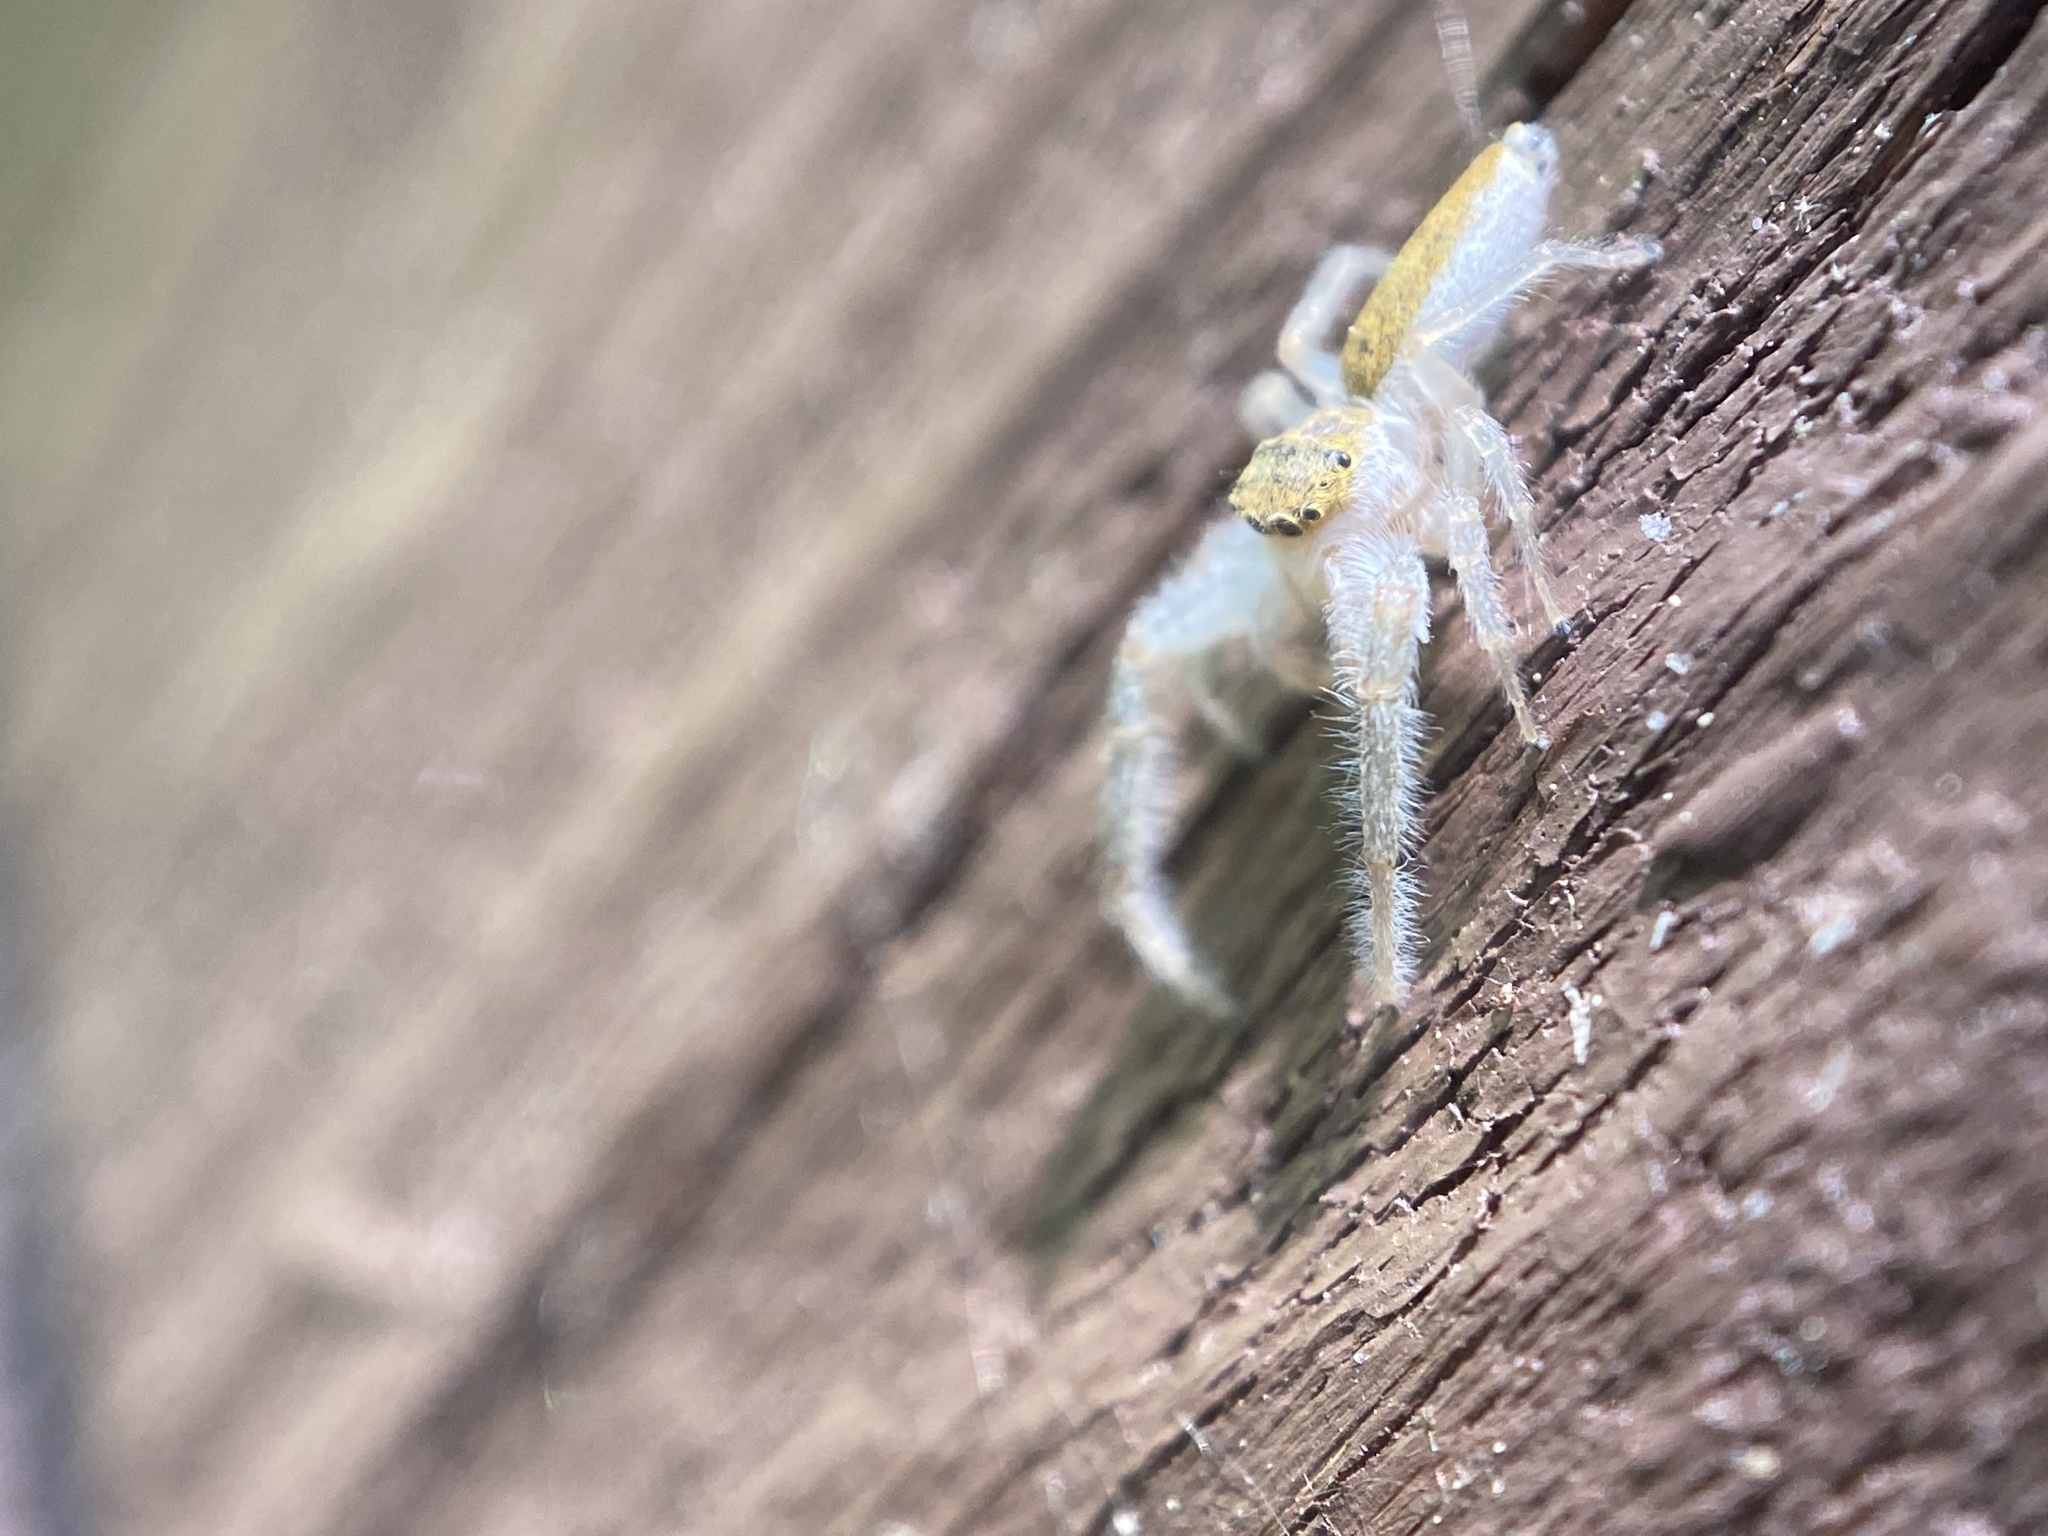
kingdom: Animalia
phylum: Arthropoda
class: Arachnida
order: Araneae
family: Salticidae
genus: Hentzia
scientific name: Hentzia mitrata
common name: White-jawed jumping spider
